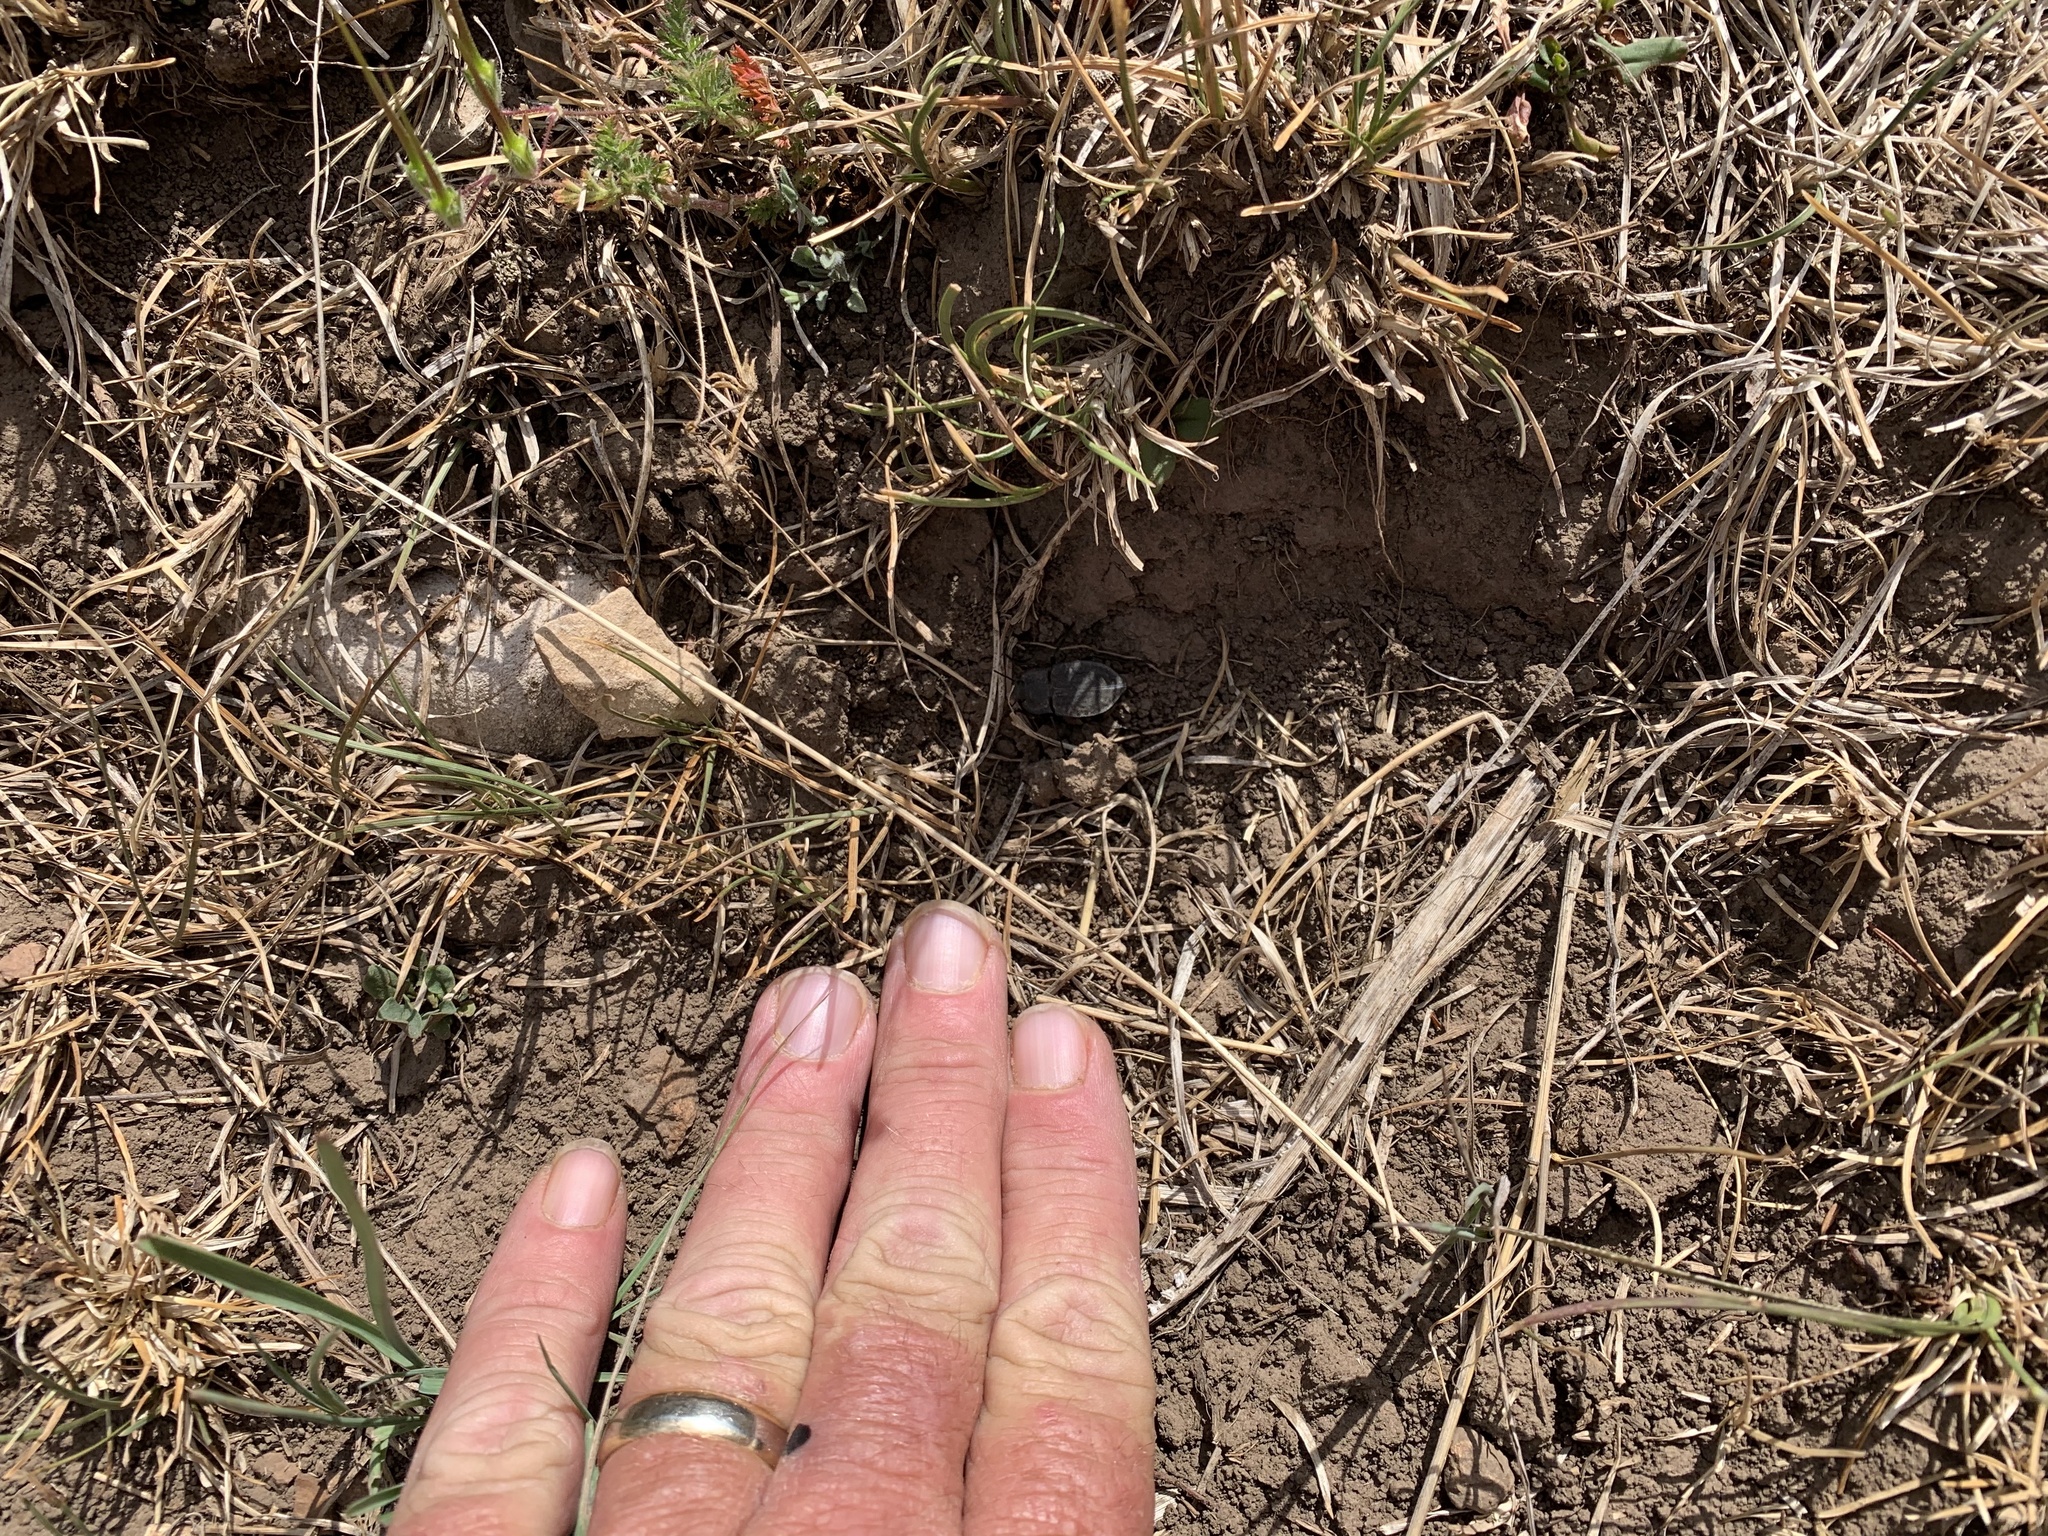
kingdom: Animalia
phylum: Arthropoda
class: Insecta
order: Coleoptera
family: Tenebrionidae
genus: Stenomorpha
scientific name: Stenomorpha opaca
